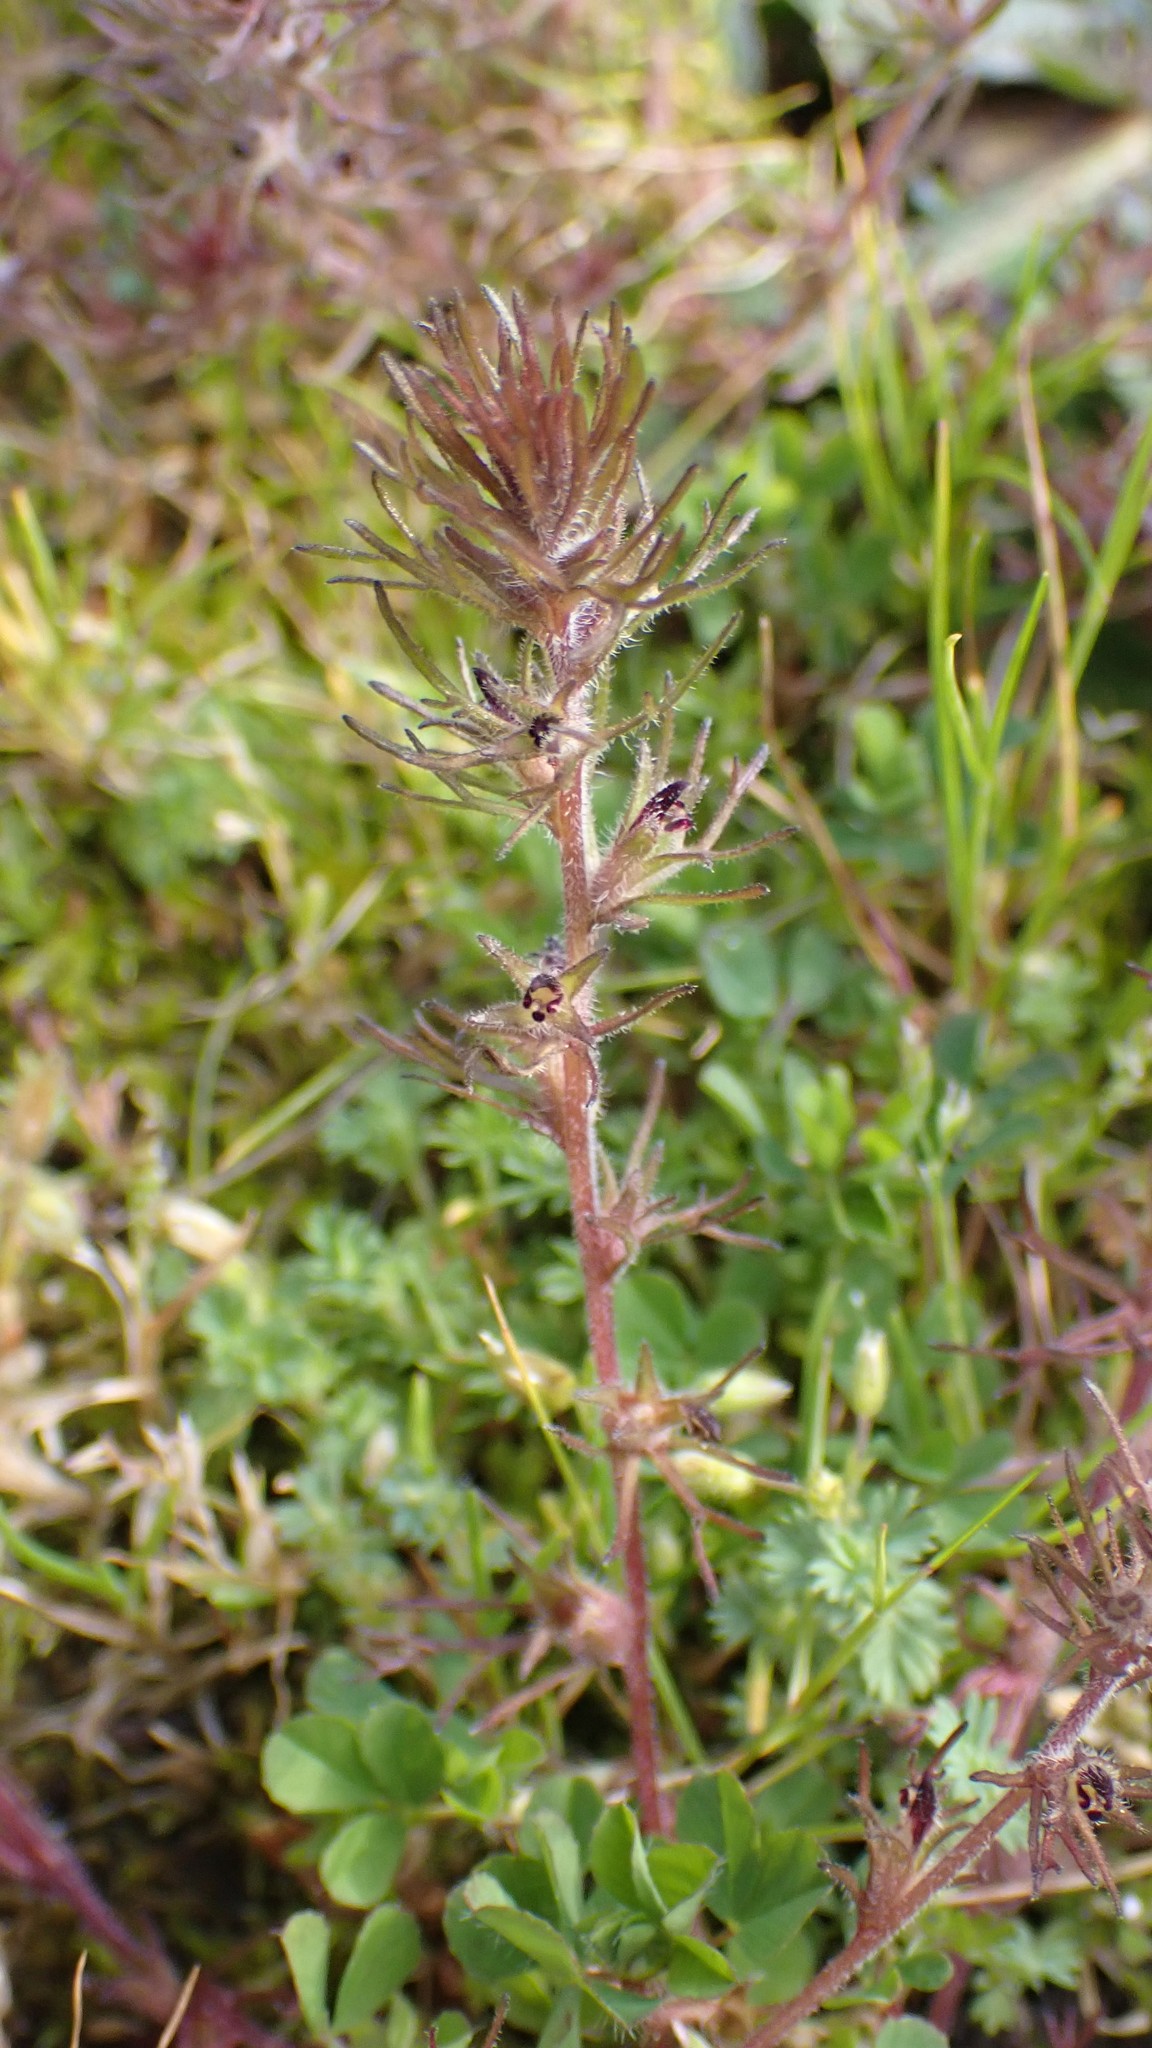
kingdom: Plantae
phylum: Tracheophyta
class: Magnoliopsida
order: Lamiales
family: Orobanchaceae
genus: Triphysaria
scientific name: Triphysaria pusilla
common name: Dwarf false owl-clover
